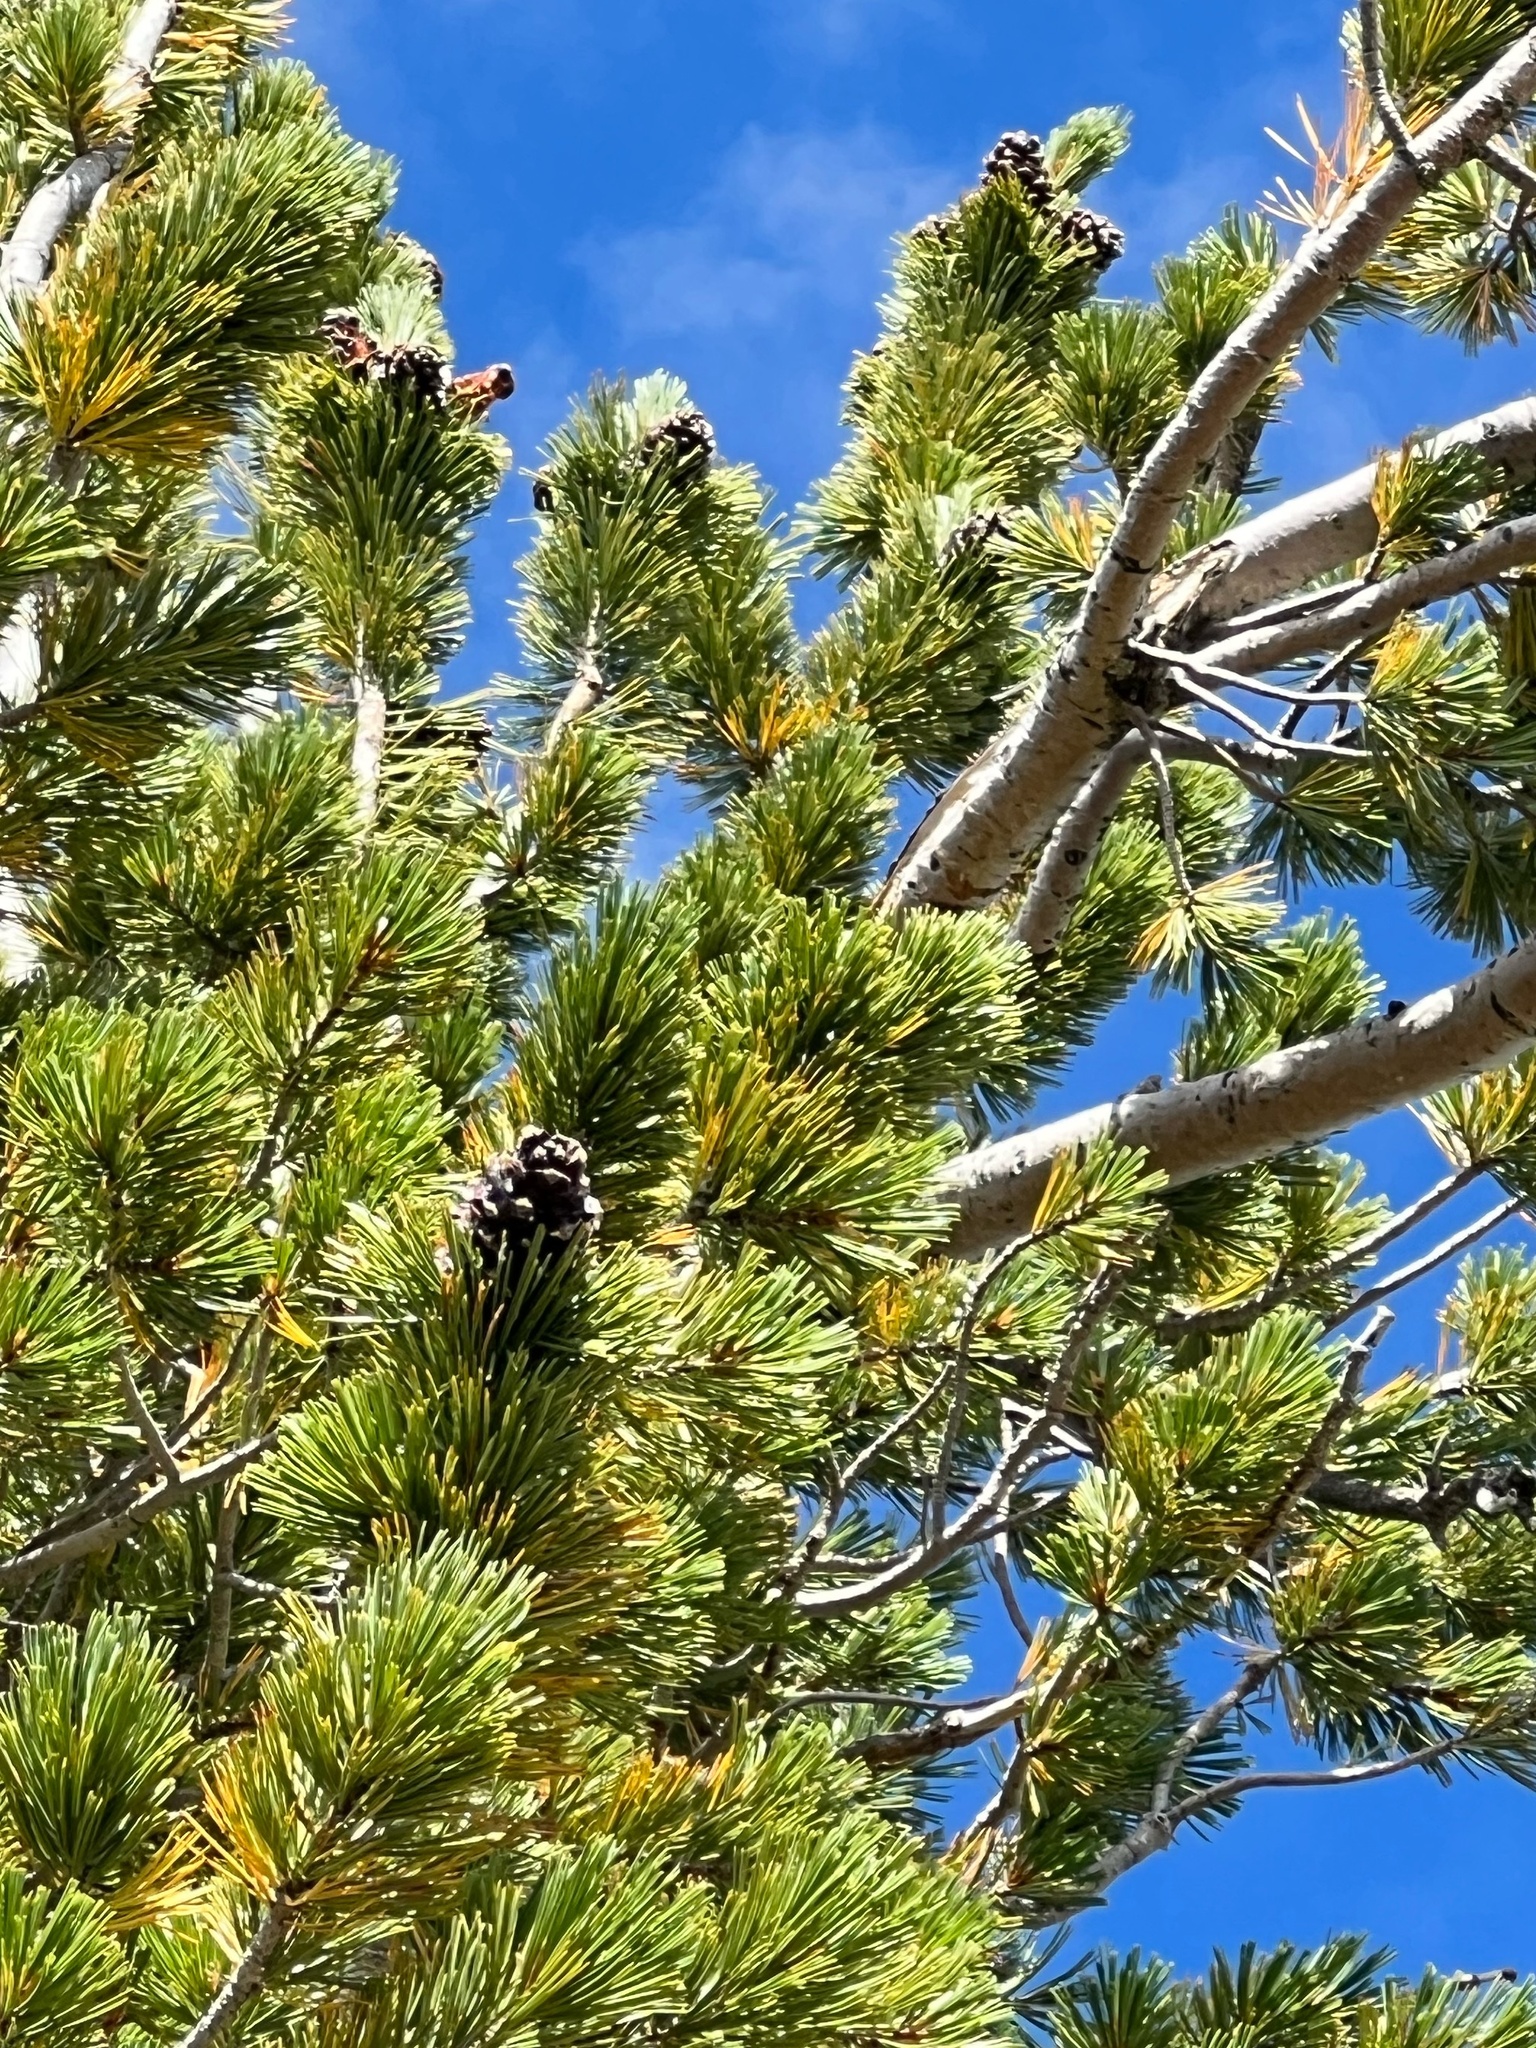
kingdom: Plantae
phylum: Tracheophyta
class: Pinopsida
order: Pinales
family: Pinaceae
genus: Pinus
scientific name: Pinus albicaulis
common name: Whitebark pine
